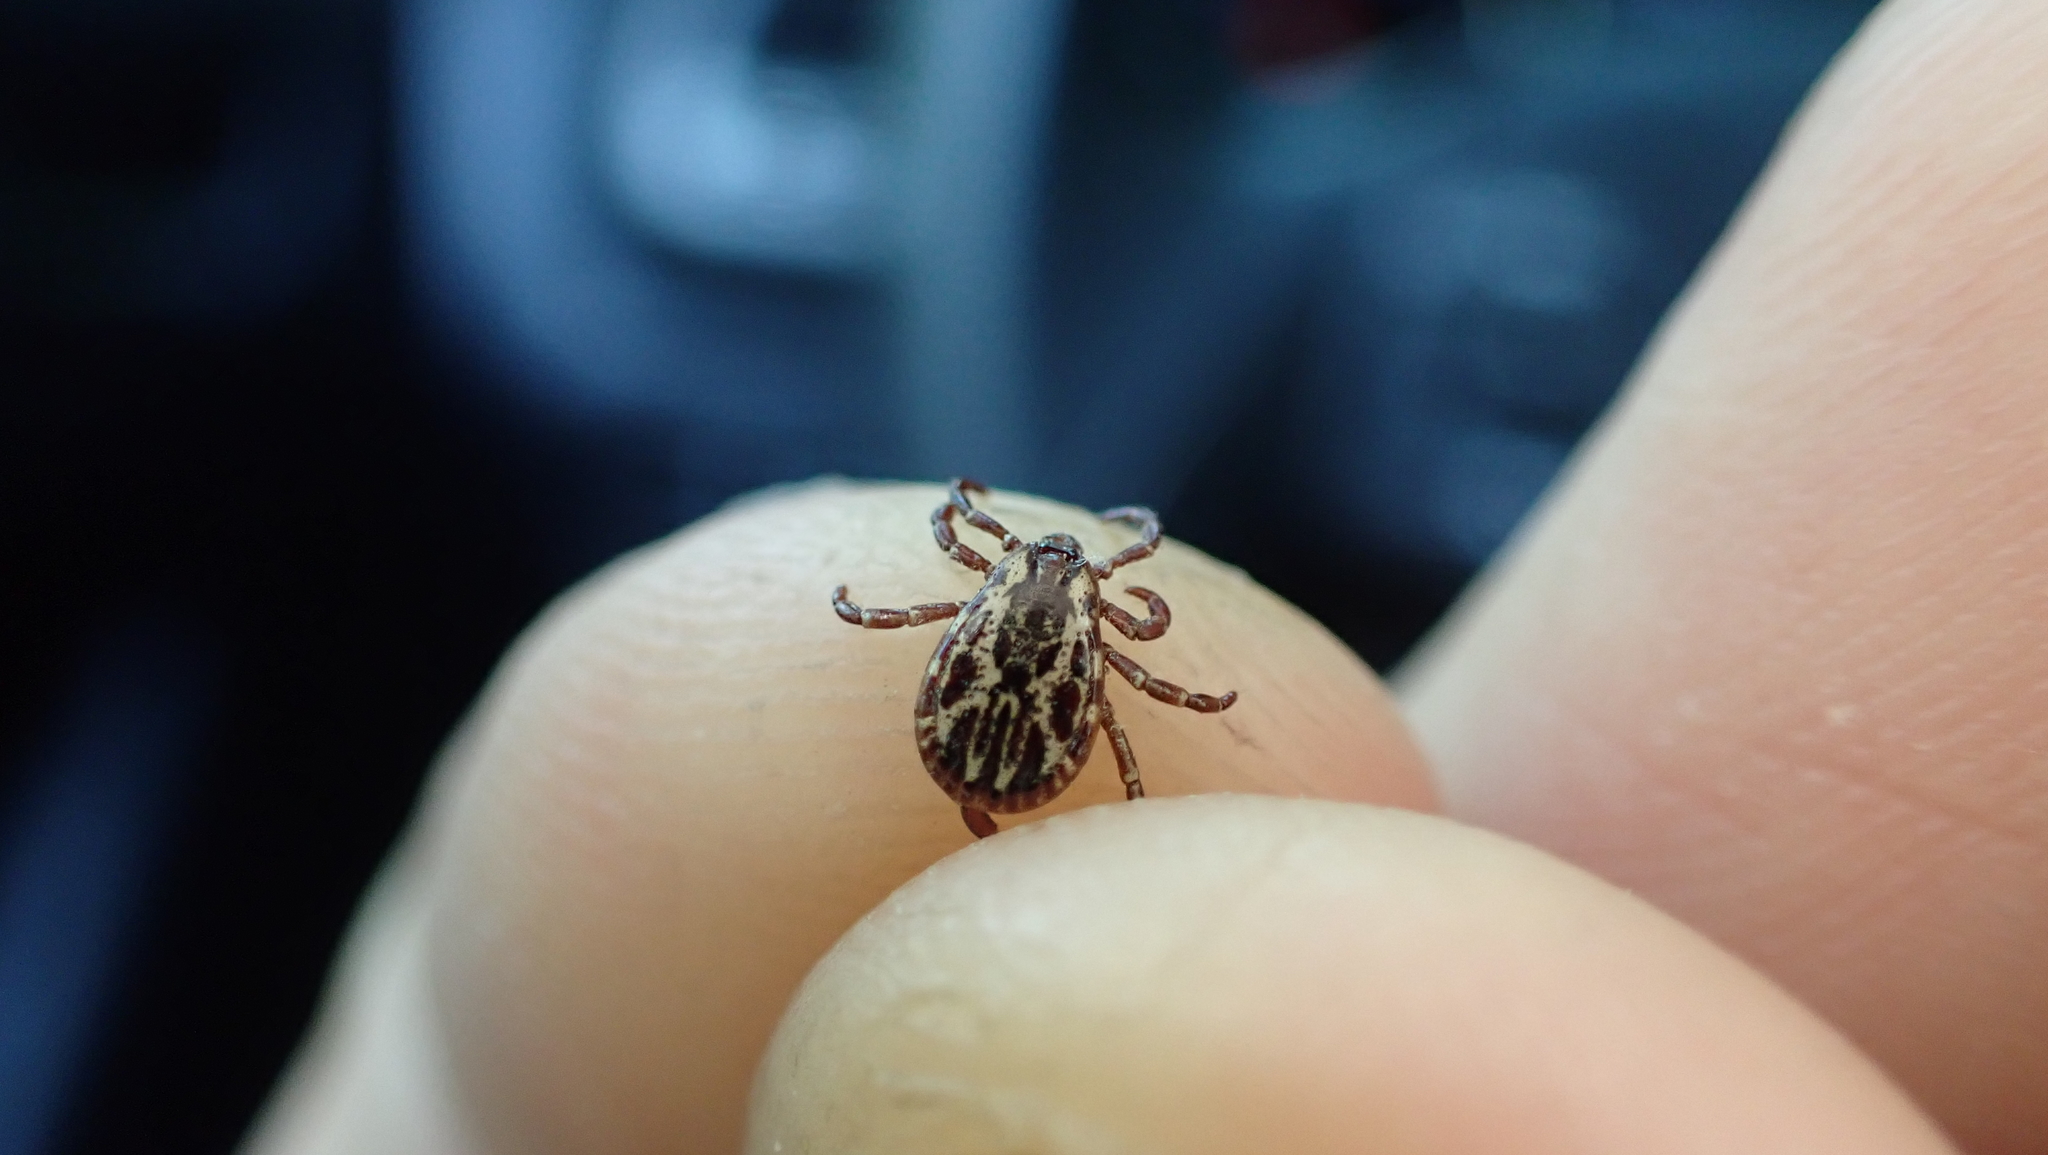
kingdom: Animalia
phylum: Arthropoda
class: Arachnida
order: Ixodida
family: Ixodidae
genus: Dermacentor
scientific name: Dermacentor variabilis
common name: American dog tick
